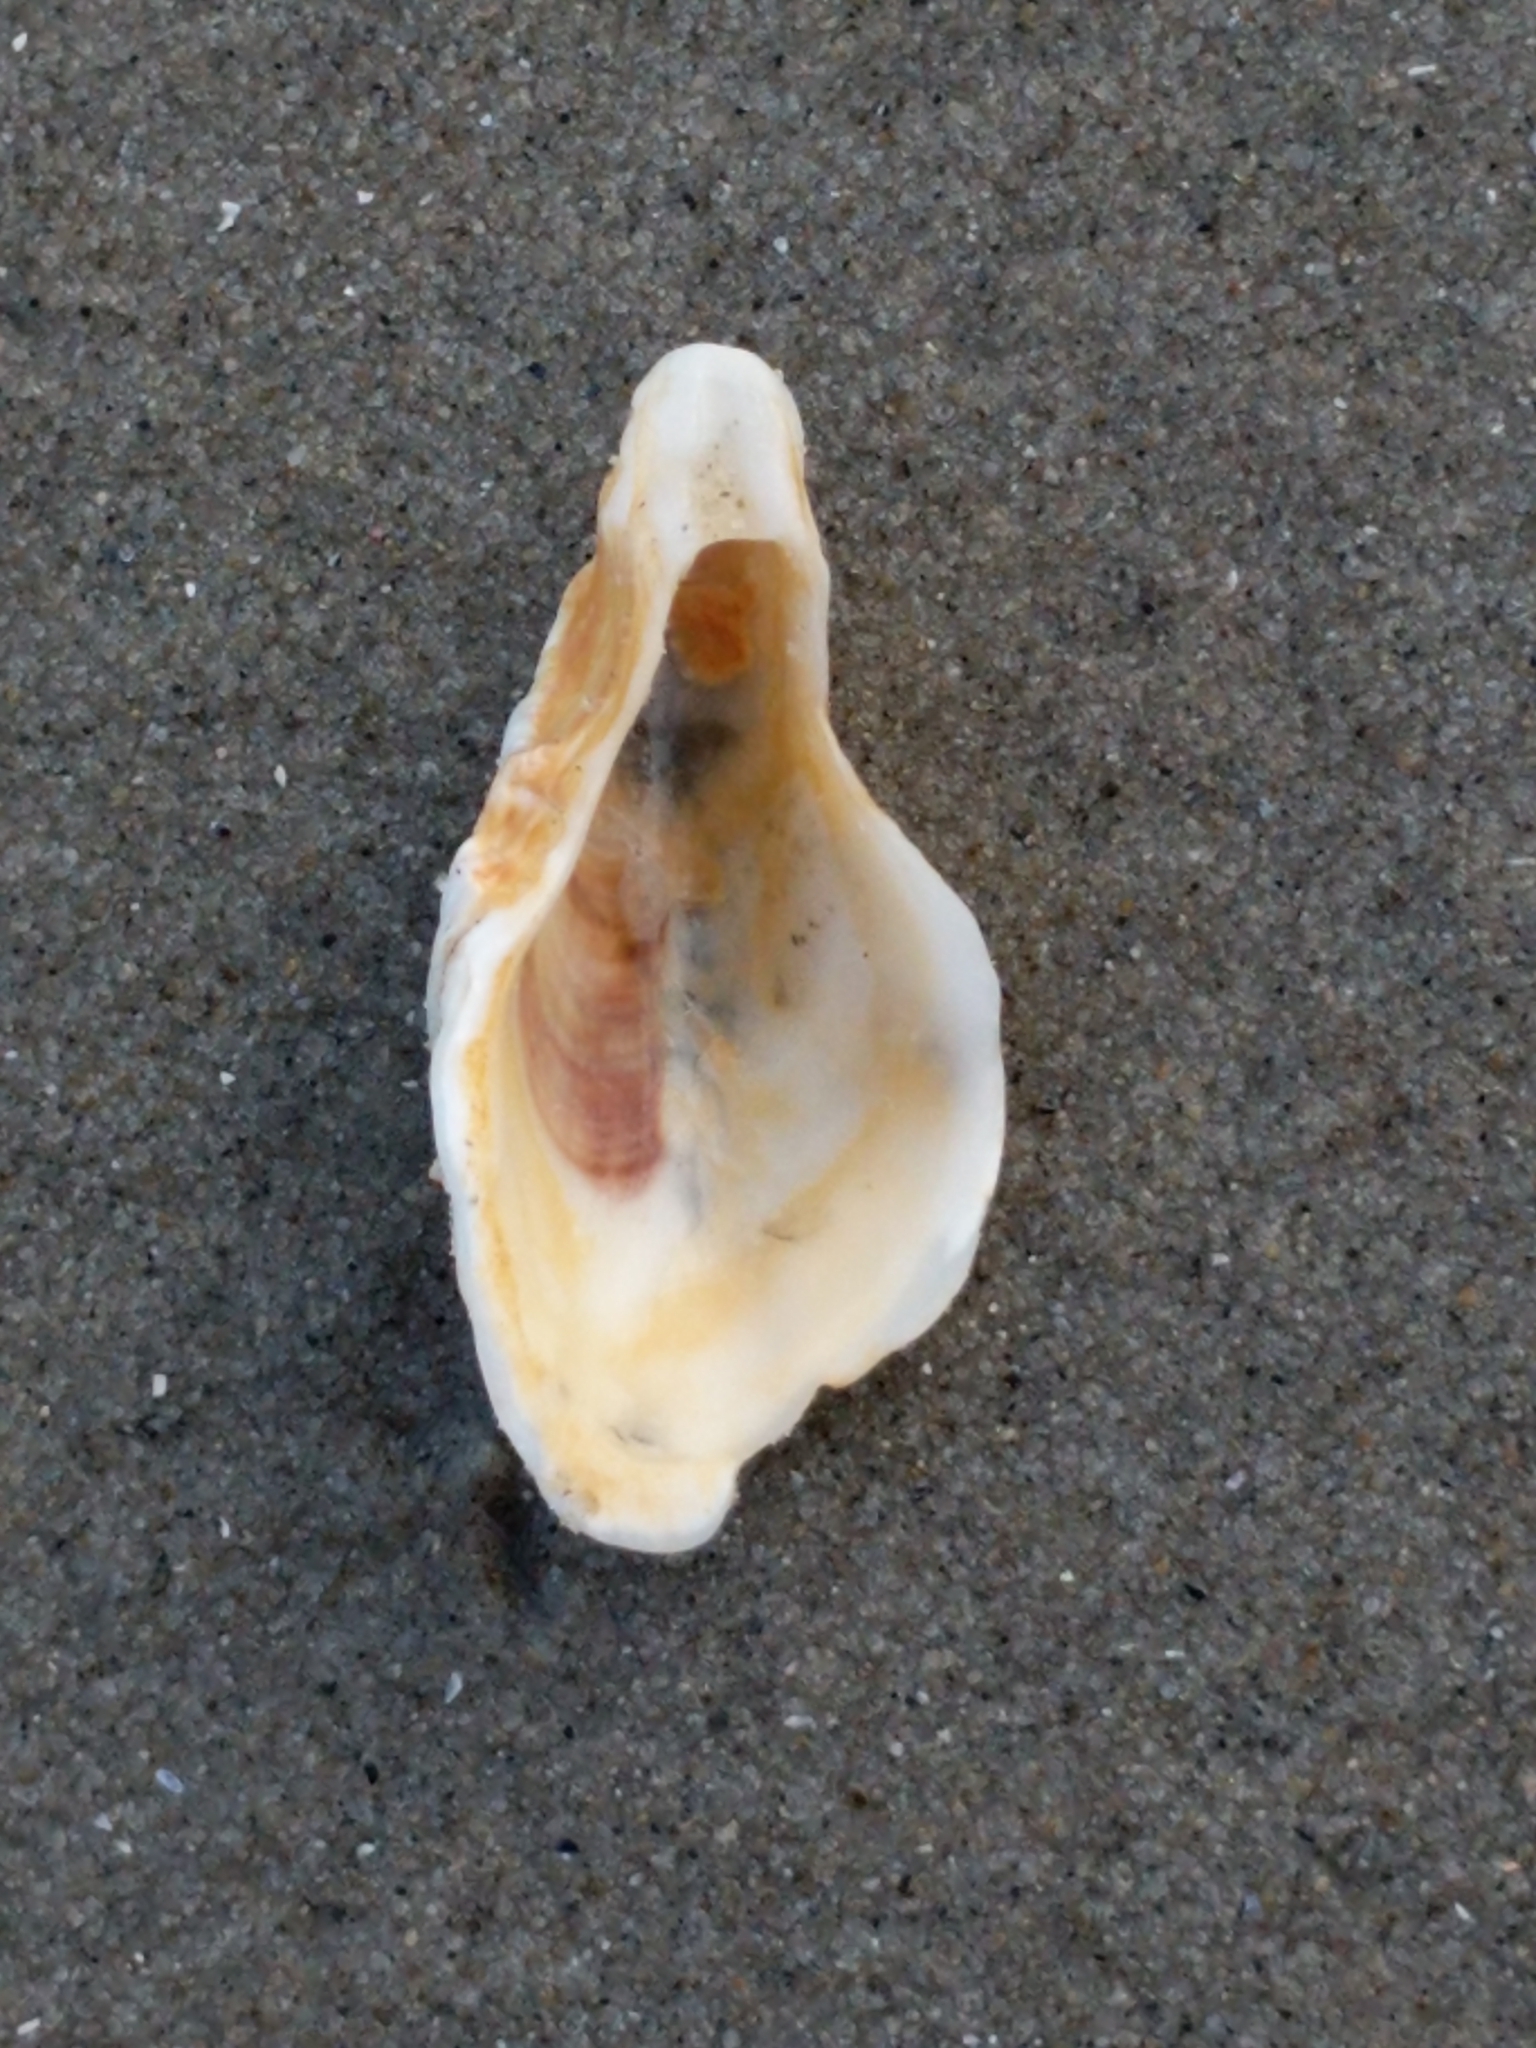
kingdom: Animalia
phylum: Mollusca
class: Bivalvia
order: Ostreida
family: Ostreidae
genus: Crassostrea
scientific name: Crassostrea virginica
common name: American oyster
